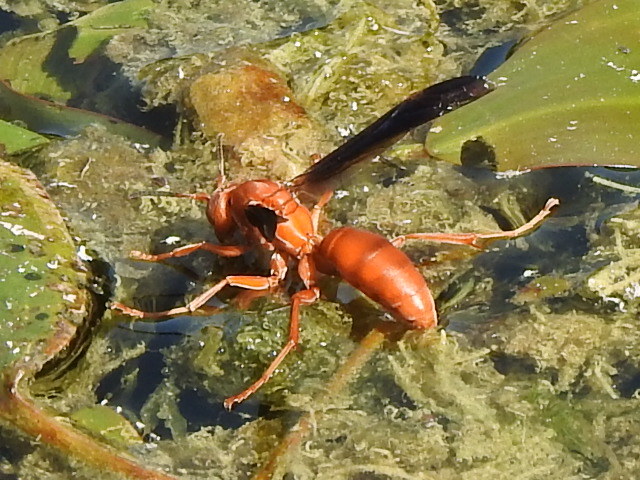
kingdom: Animalia
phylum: Arthropoda
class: Insecta
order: Hymenoptera
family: Vespidae
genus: Fuscopolistes
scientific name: Fuscopolistes
